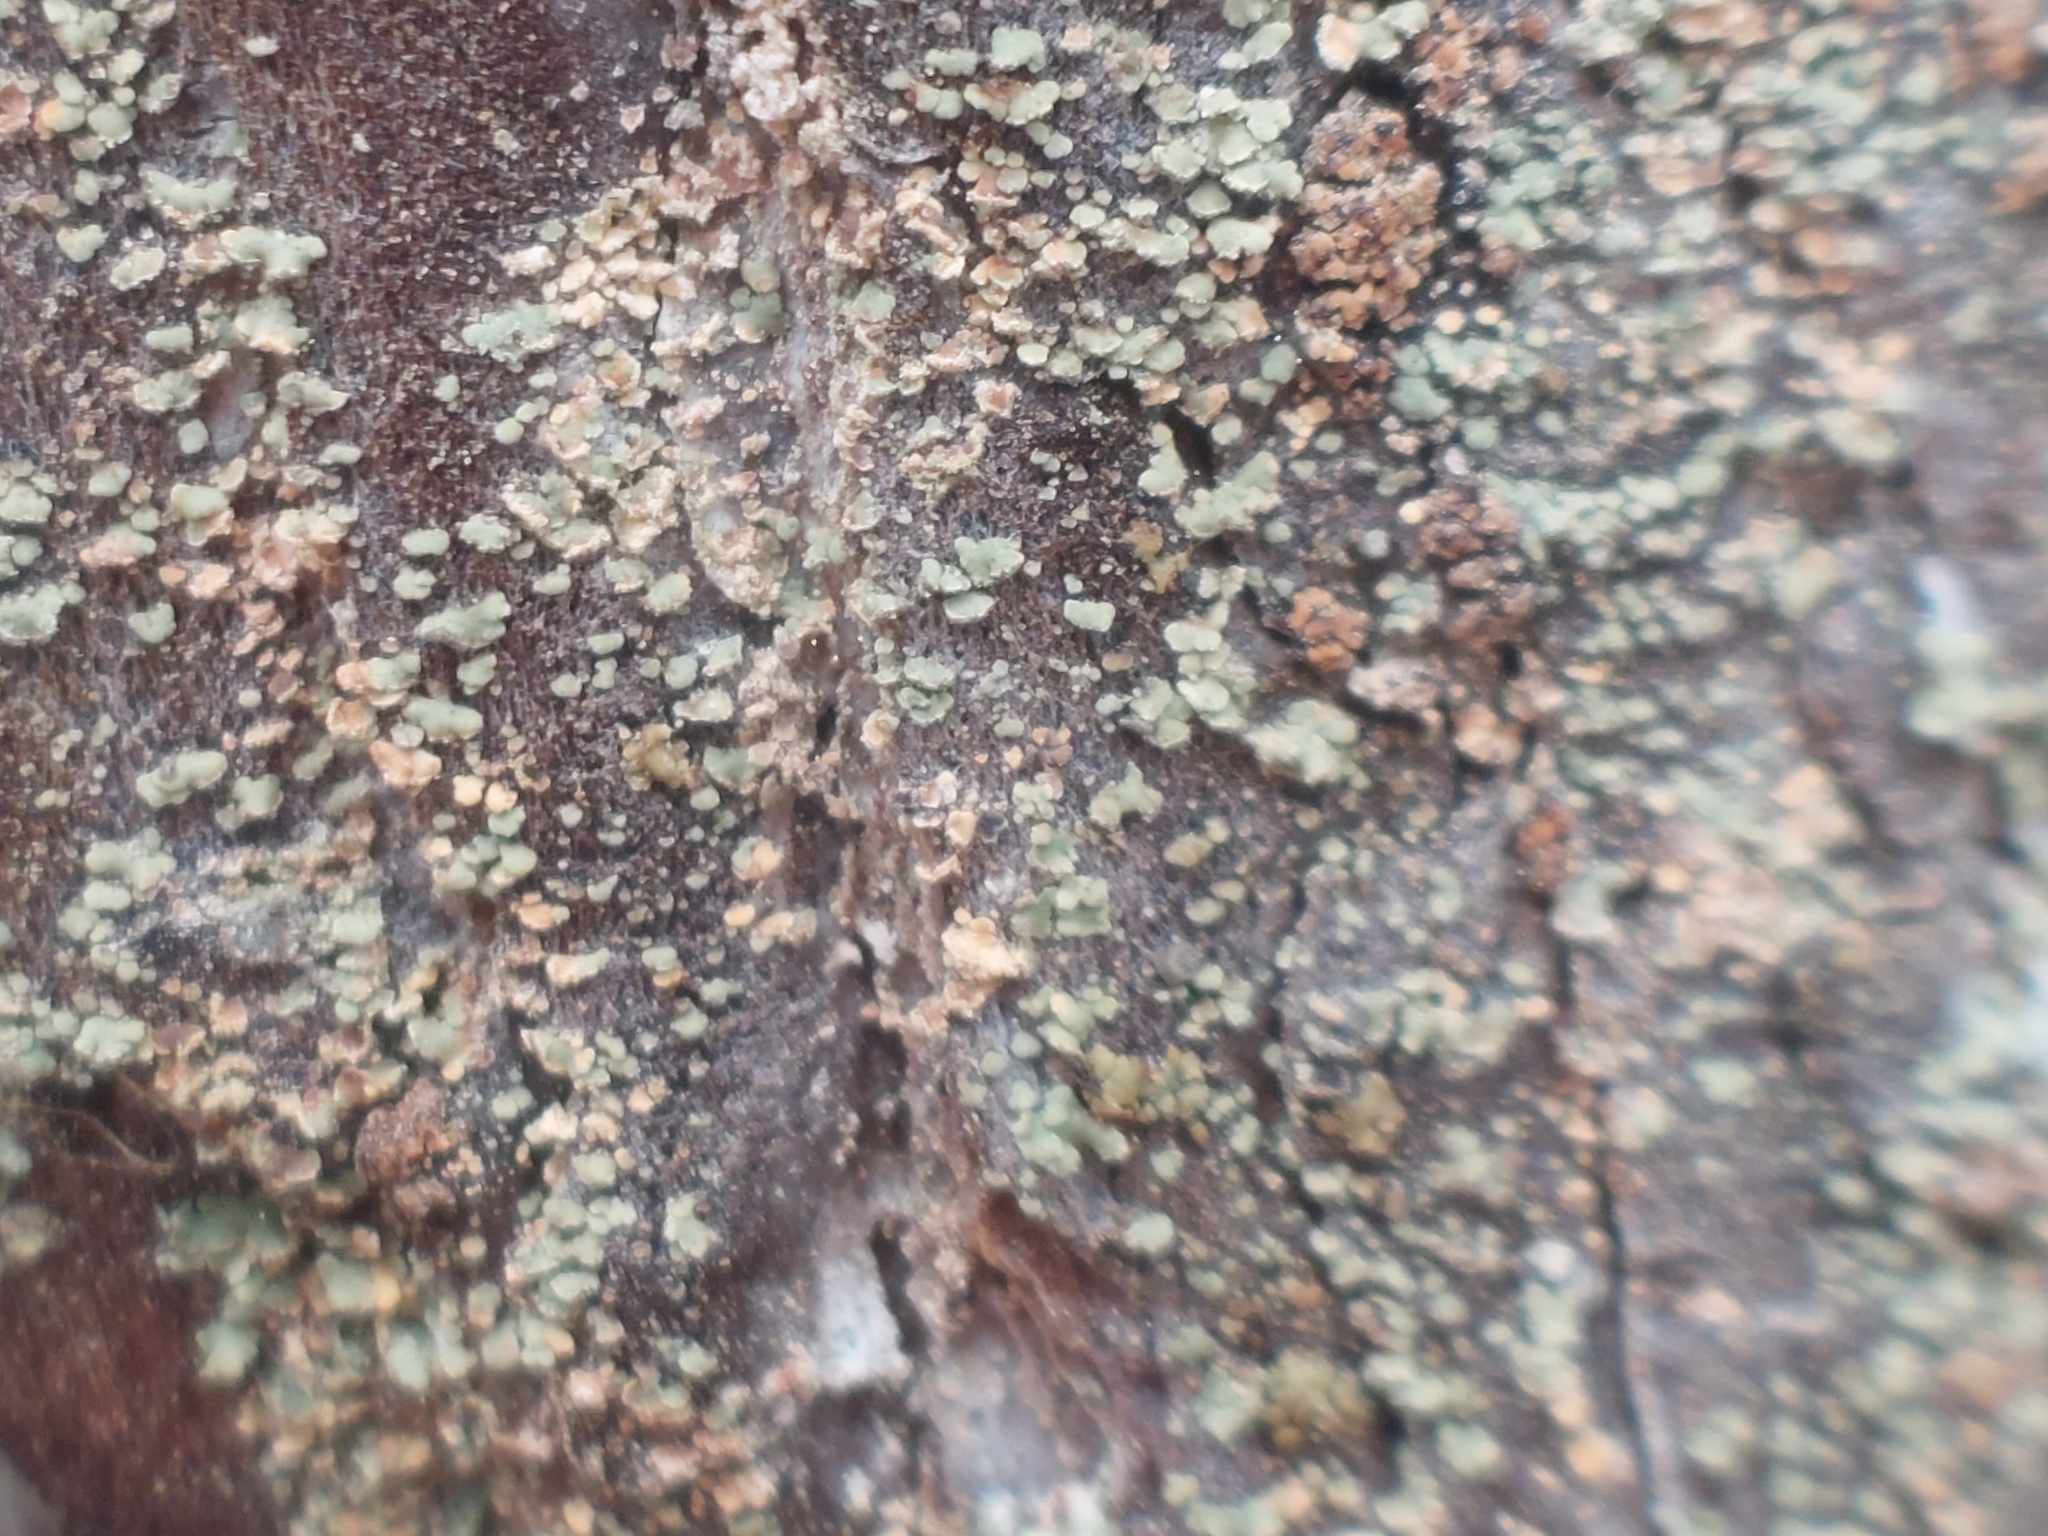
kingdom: Fungi
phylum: Ascomycota
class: Lecanoromycetes
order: Umbilicariales
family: Ophioparmaceae
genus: Hypocenomyce
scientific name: Hypocenomyce scalaris
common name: Common clam lichen
